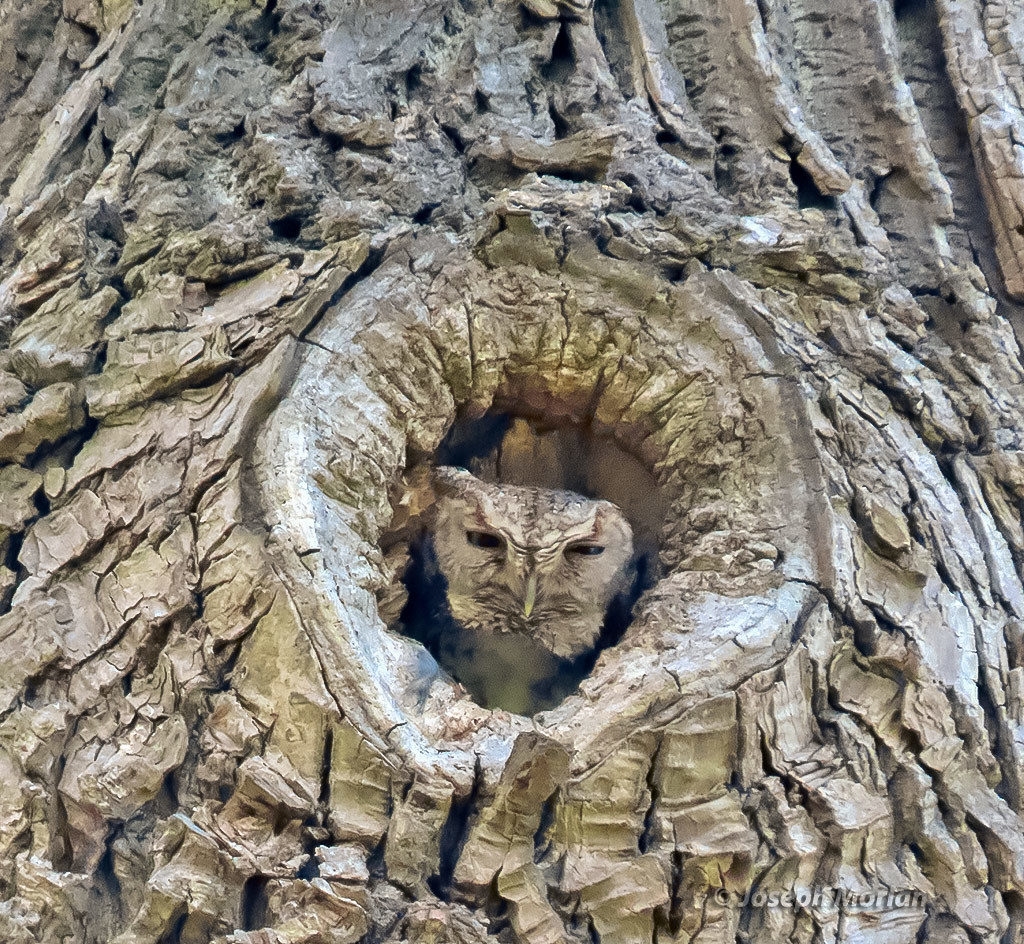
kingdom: Animalia
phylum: Chordata
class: Aves
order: Strigiformes
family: Strigidae
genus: Megascops
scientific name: Megascops asio
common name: Eastern screech-owl
